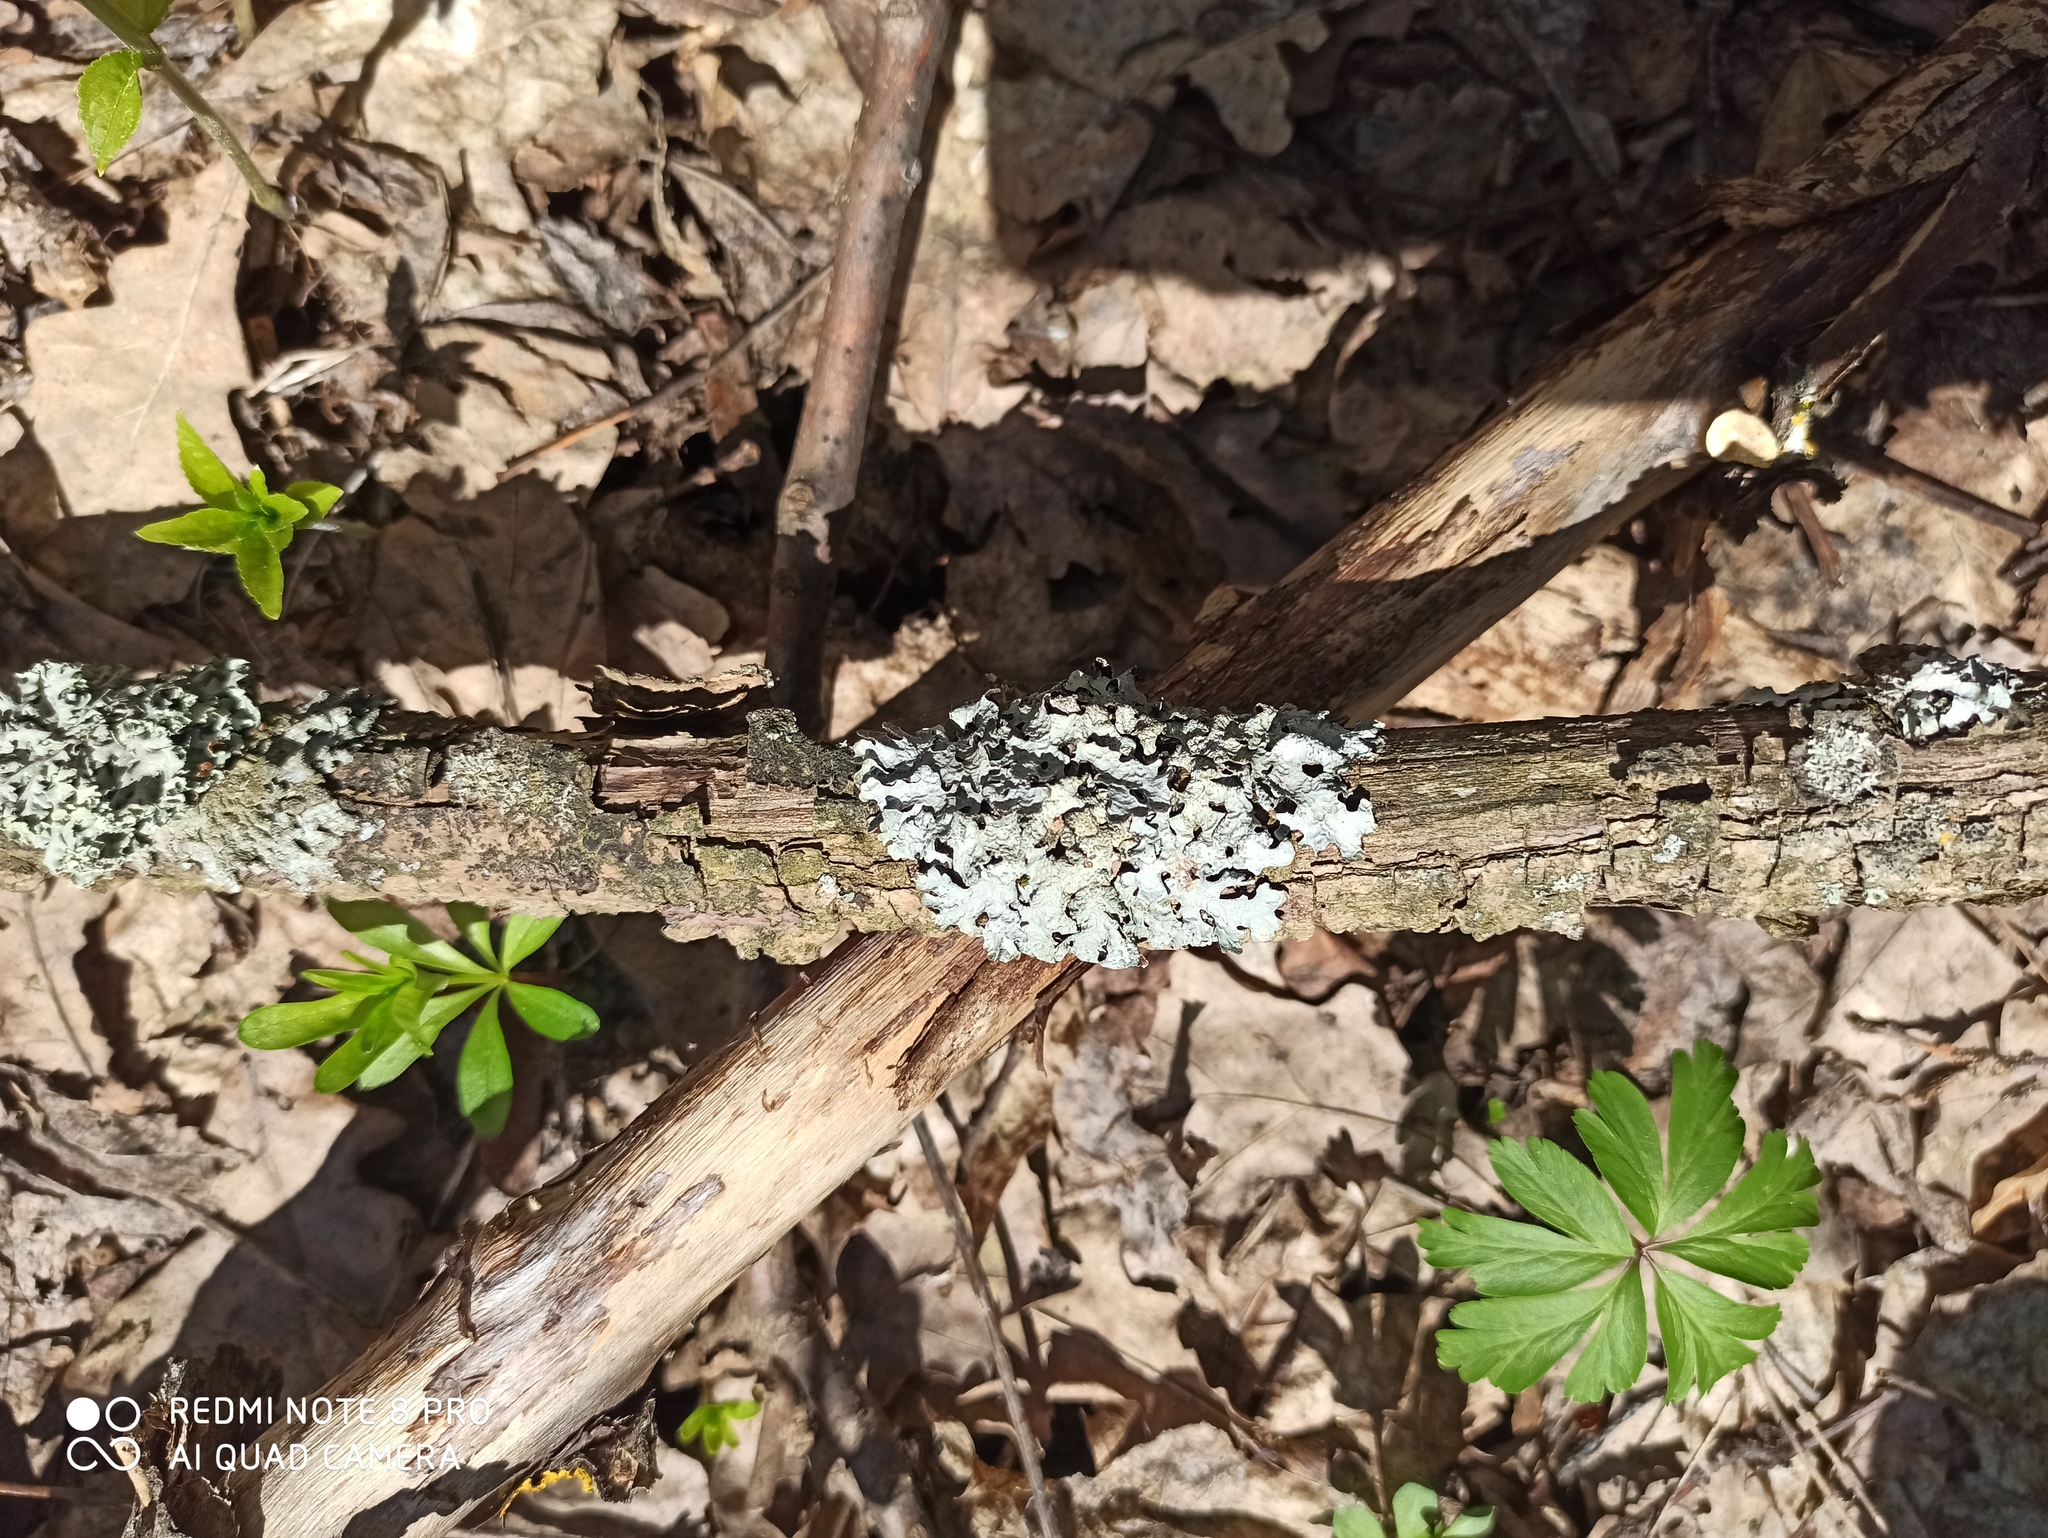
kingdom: Fungi
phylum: Ascomycota
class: Lecanoromycetes
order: Lecanorales
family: Parmeliaceae
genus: Parmelia
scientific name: Parmelia sulcata
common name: Netted shield lichen
